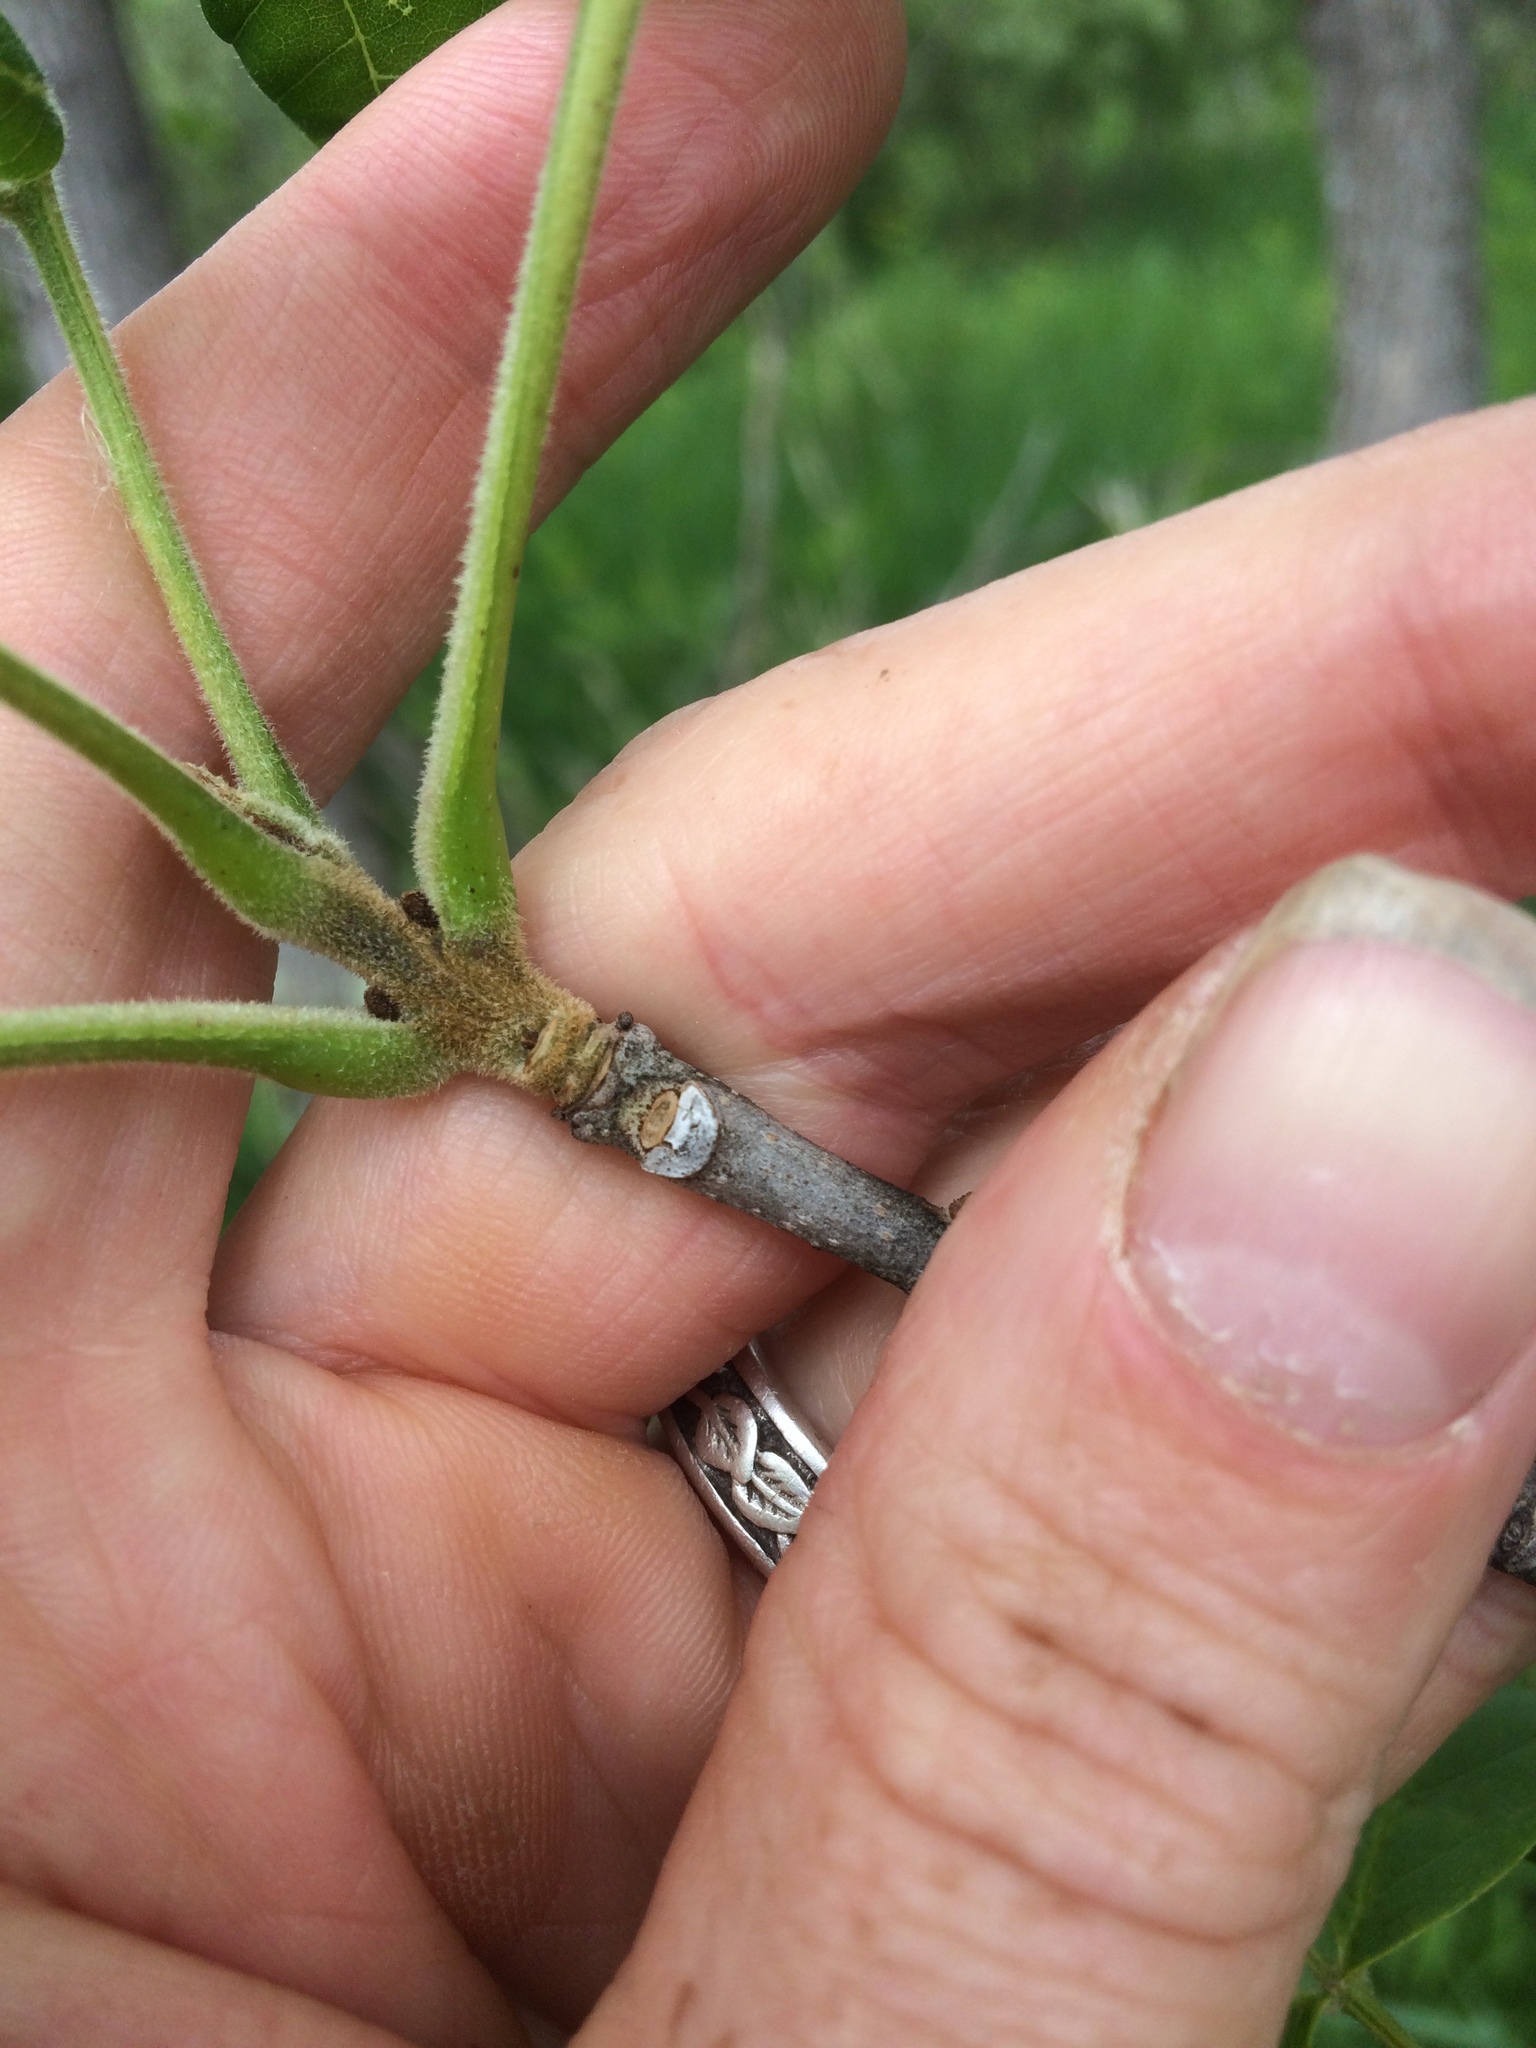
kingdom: Plantae
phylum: Tracheophyta
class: Magnoliopsida
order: Lamiales
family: Oleaceae
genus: Fraxinus
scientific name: Fraxinus pennsylvanica
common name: Green ash
